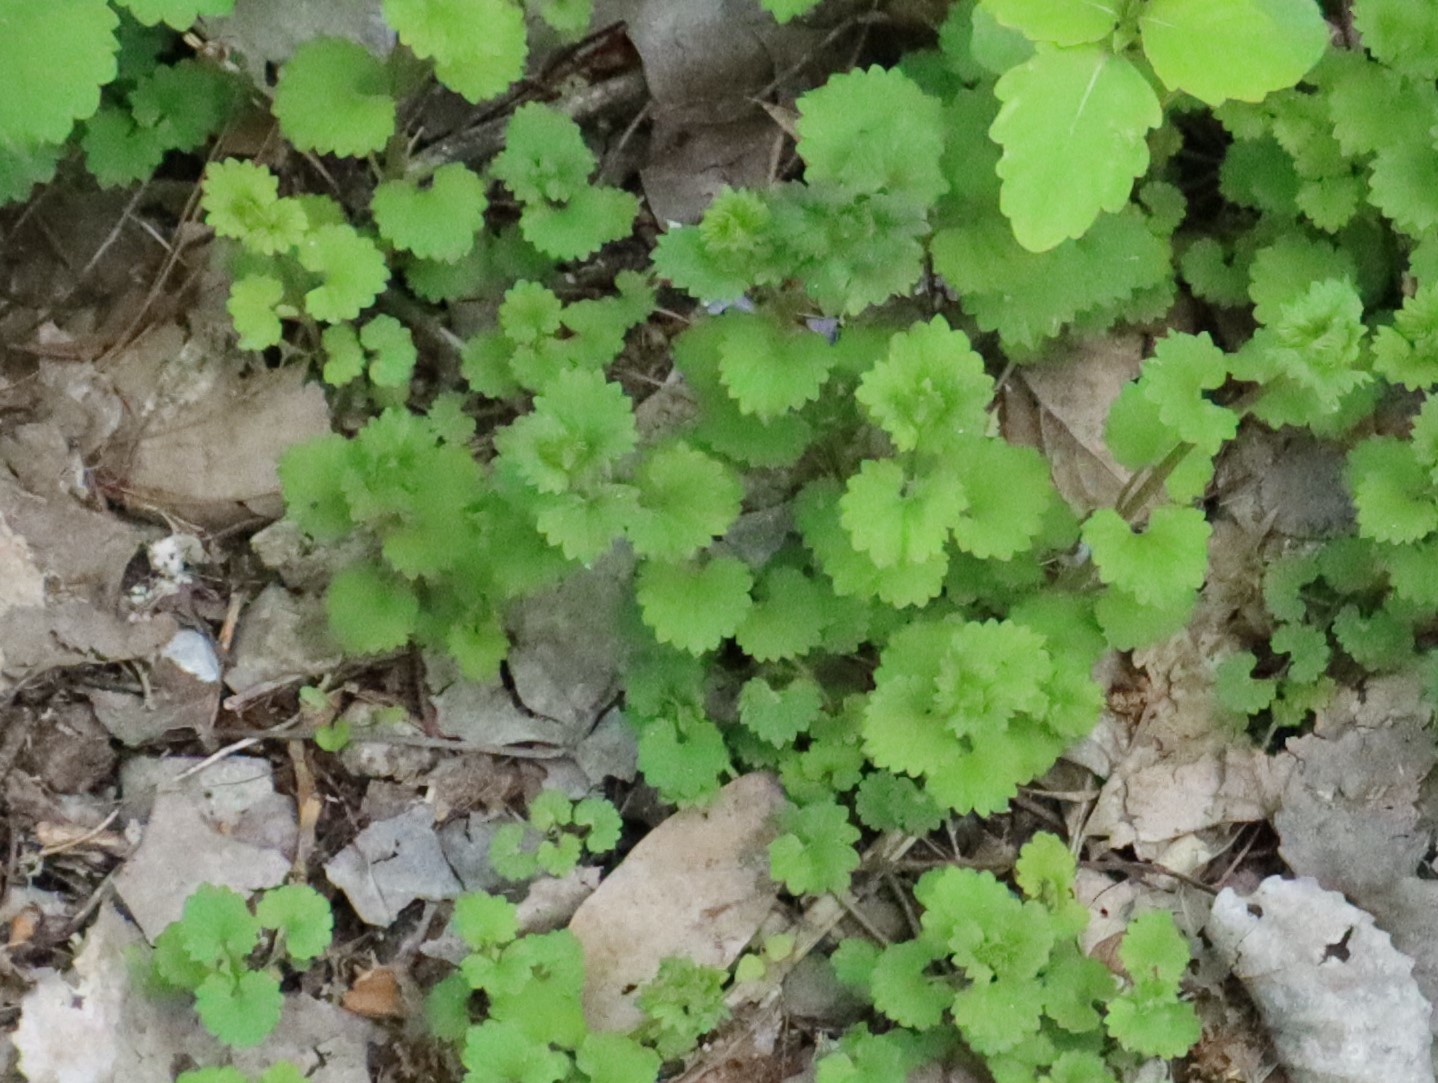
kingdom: Plantae
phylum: Tracheophyta
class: Magnoliopsida
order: Lamiales
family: Lamiaceae
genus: Glechoma
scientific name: Glechoma hederacea
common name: Ground ivy
